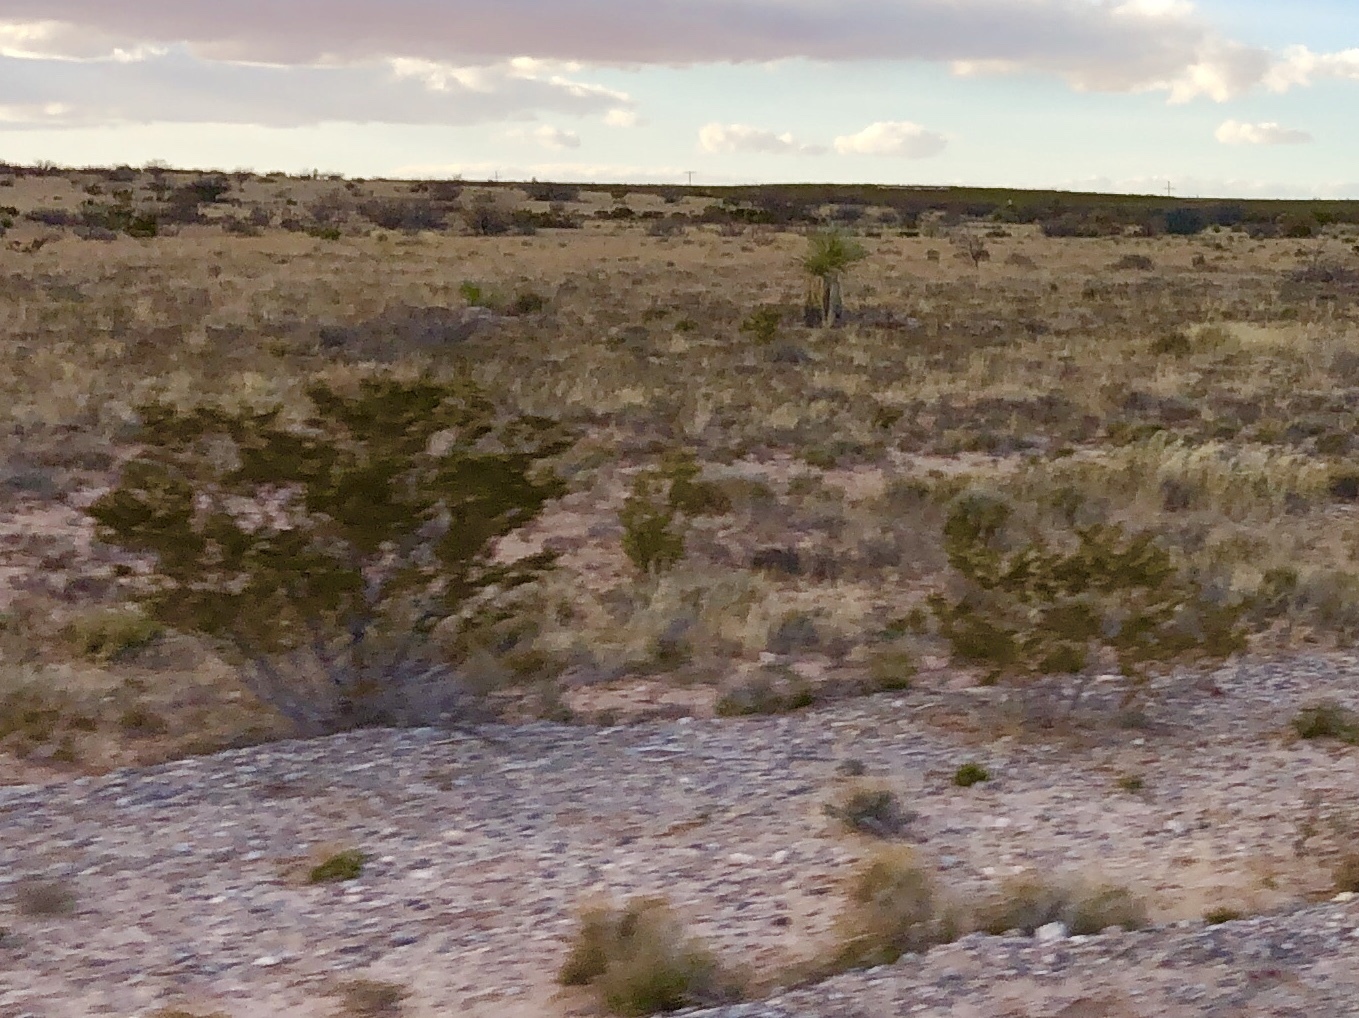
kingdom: Plantae
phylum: Tracheophyta
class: Magnoliopsida
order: Zygophyllales
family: Zygophyllaceae
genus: Larrea
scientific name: Larrea tridentata
